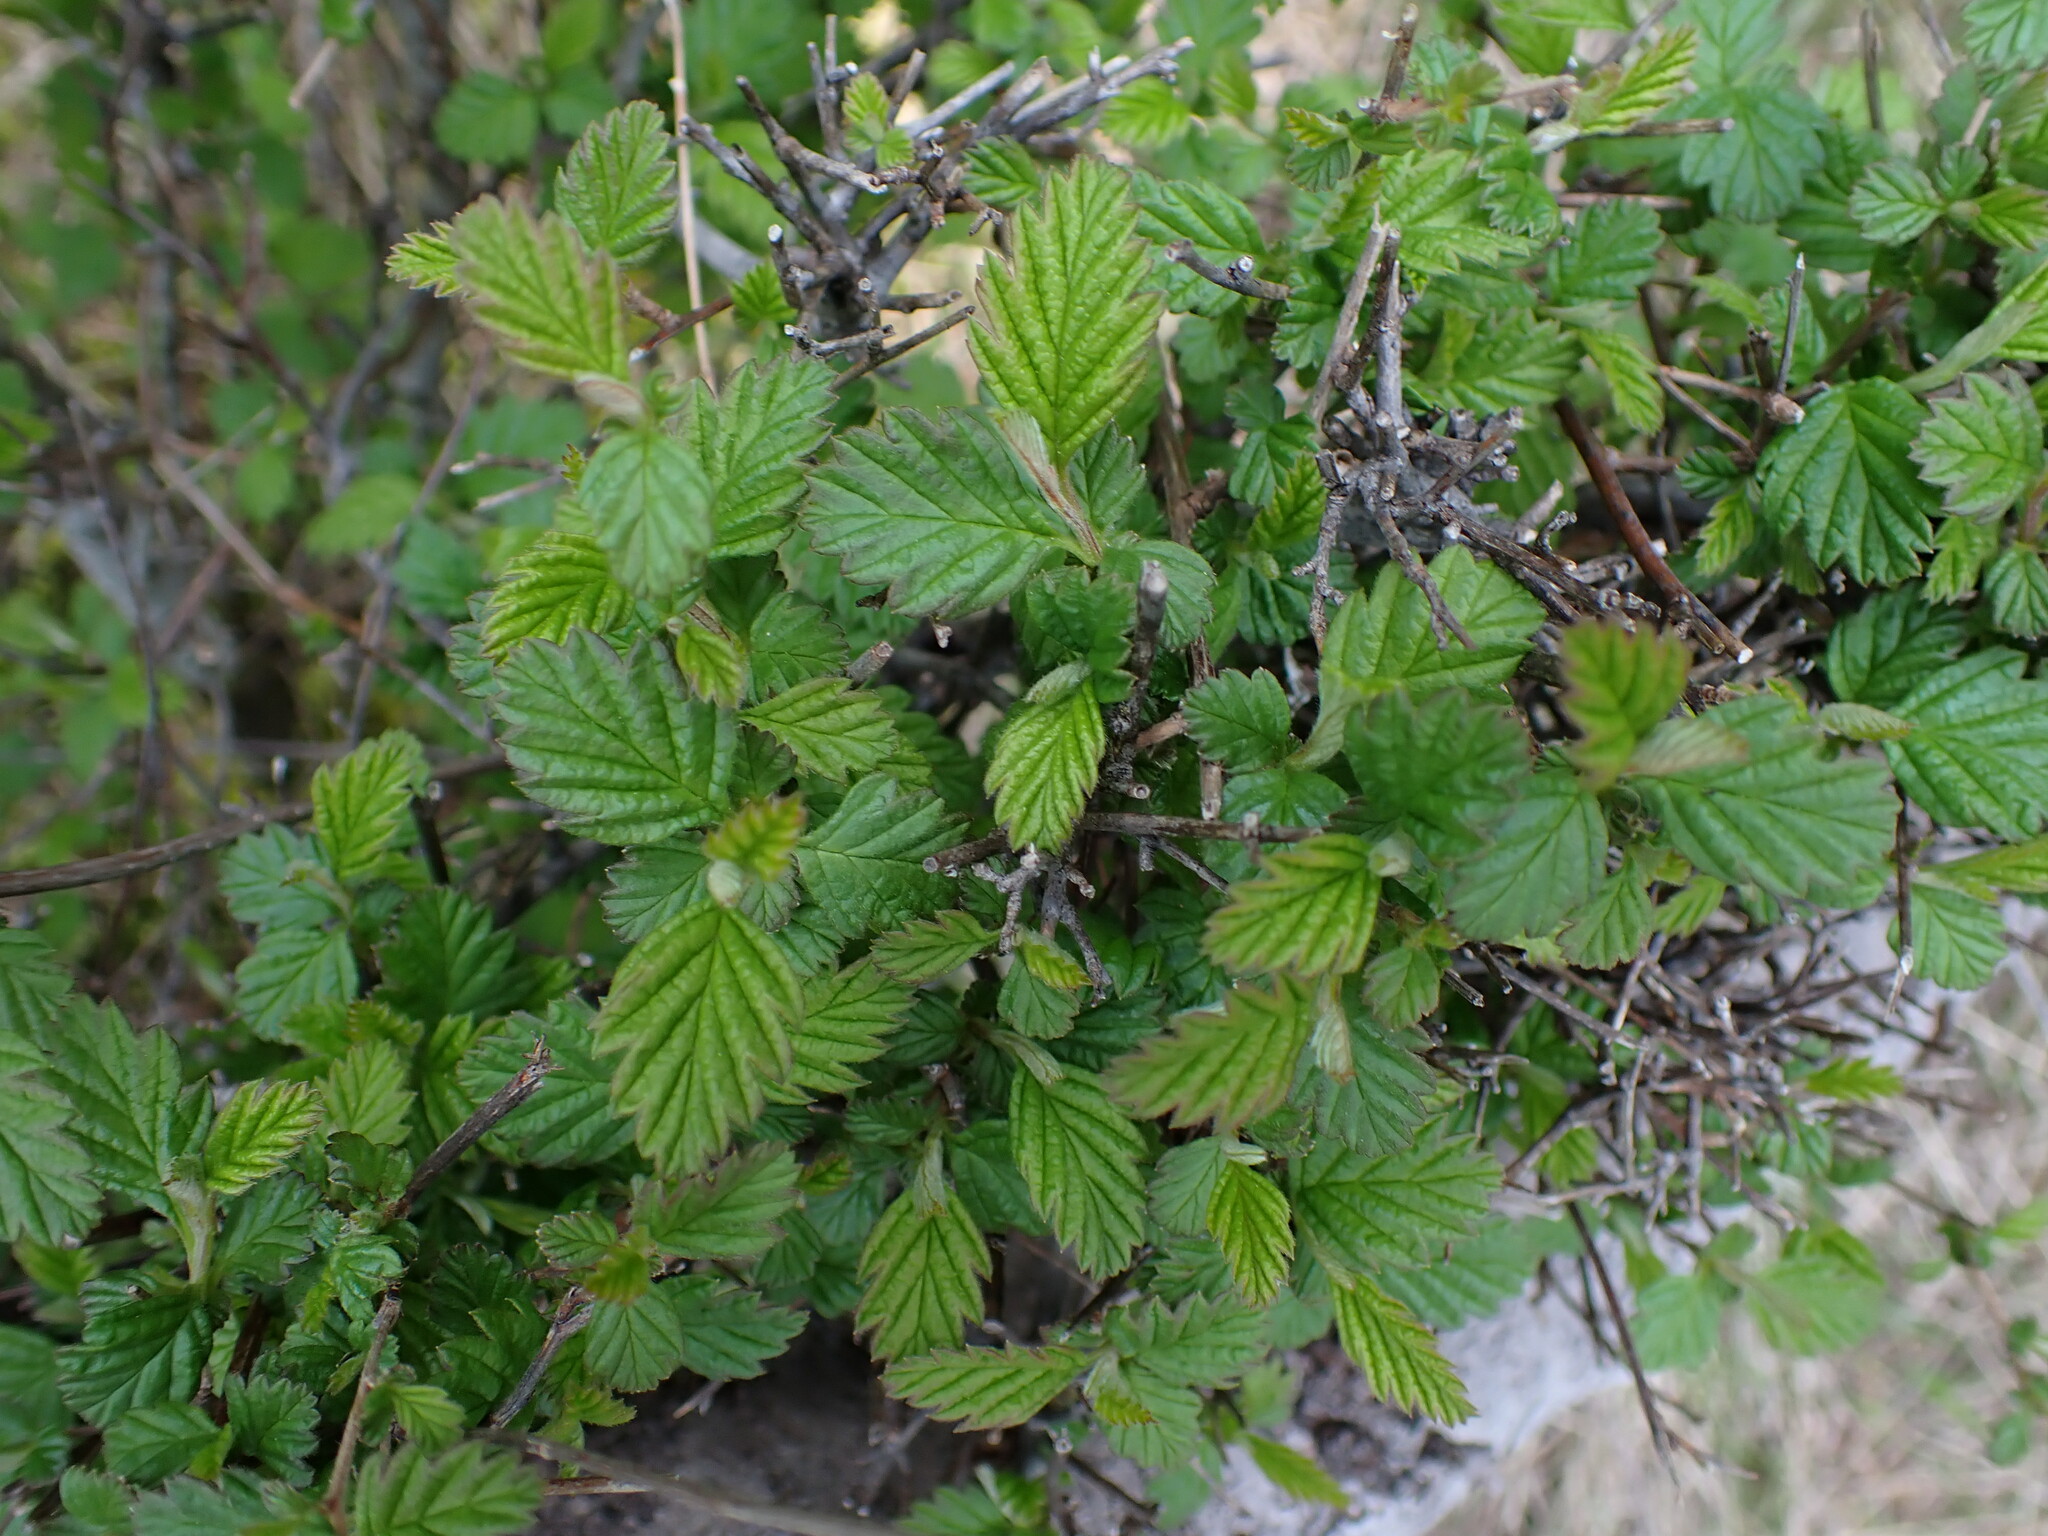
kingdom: Plantae
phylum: Tracheophyta
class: Magnoliopsida
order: Rosales
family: Rosaceae
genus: Holodiscus
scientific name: Holodiscus discolor
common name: Oceanspray
